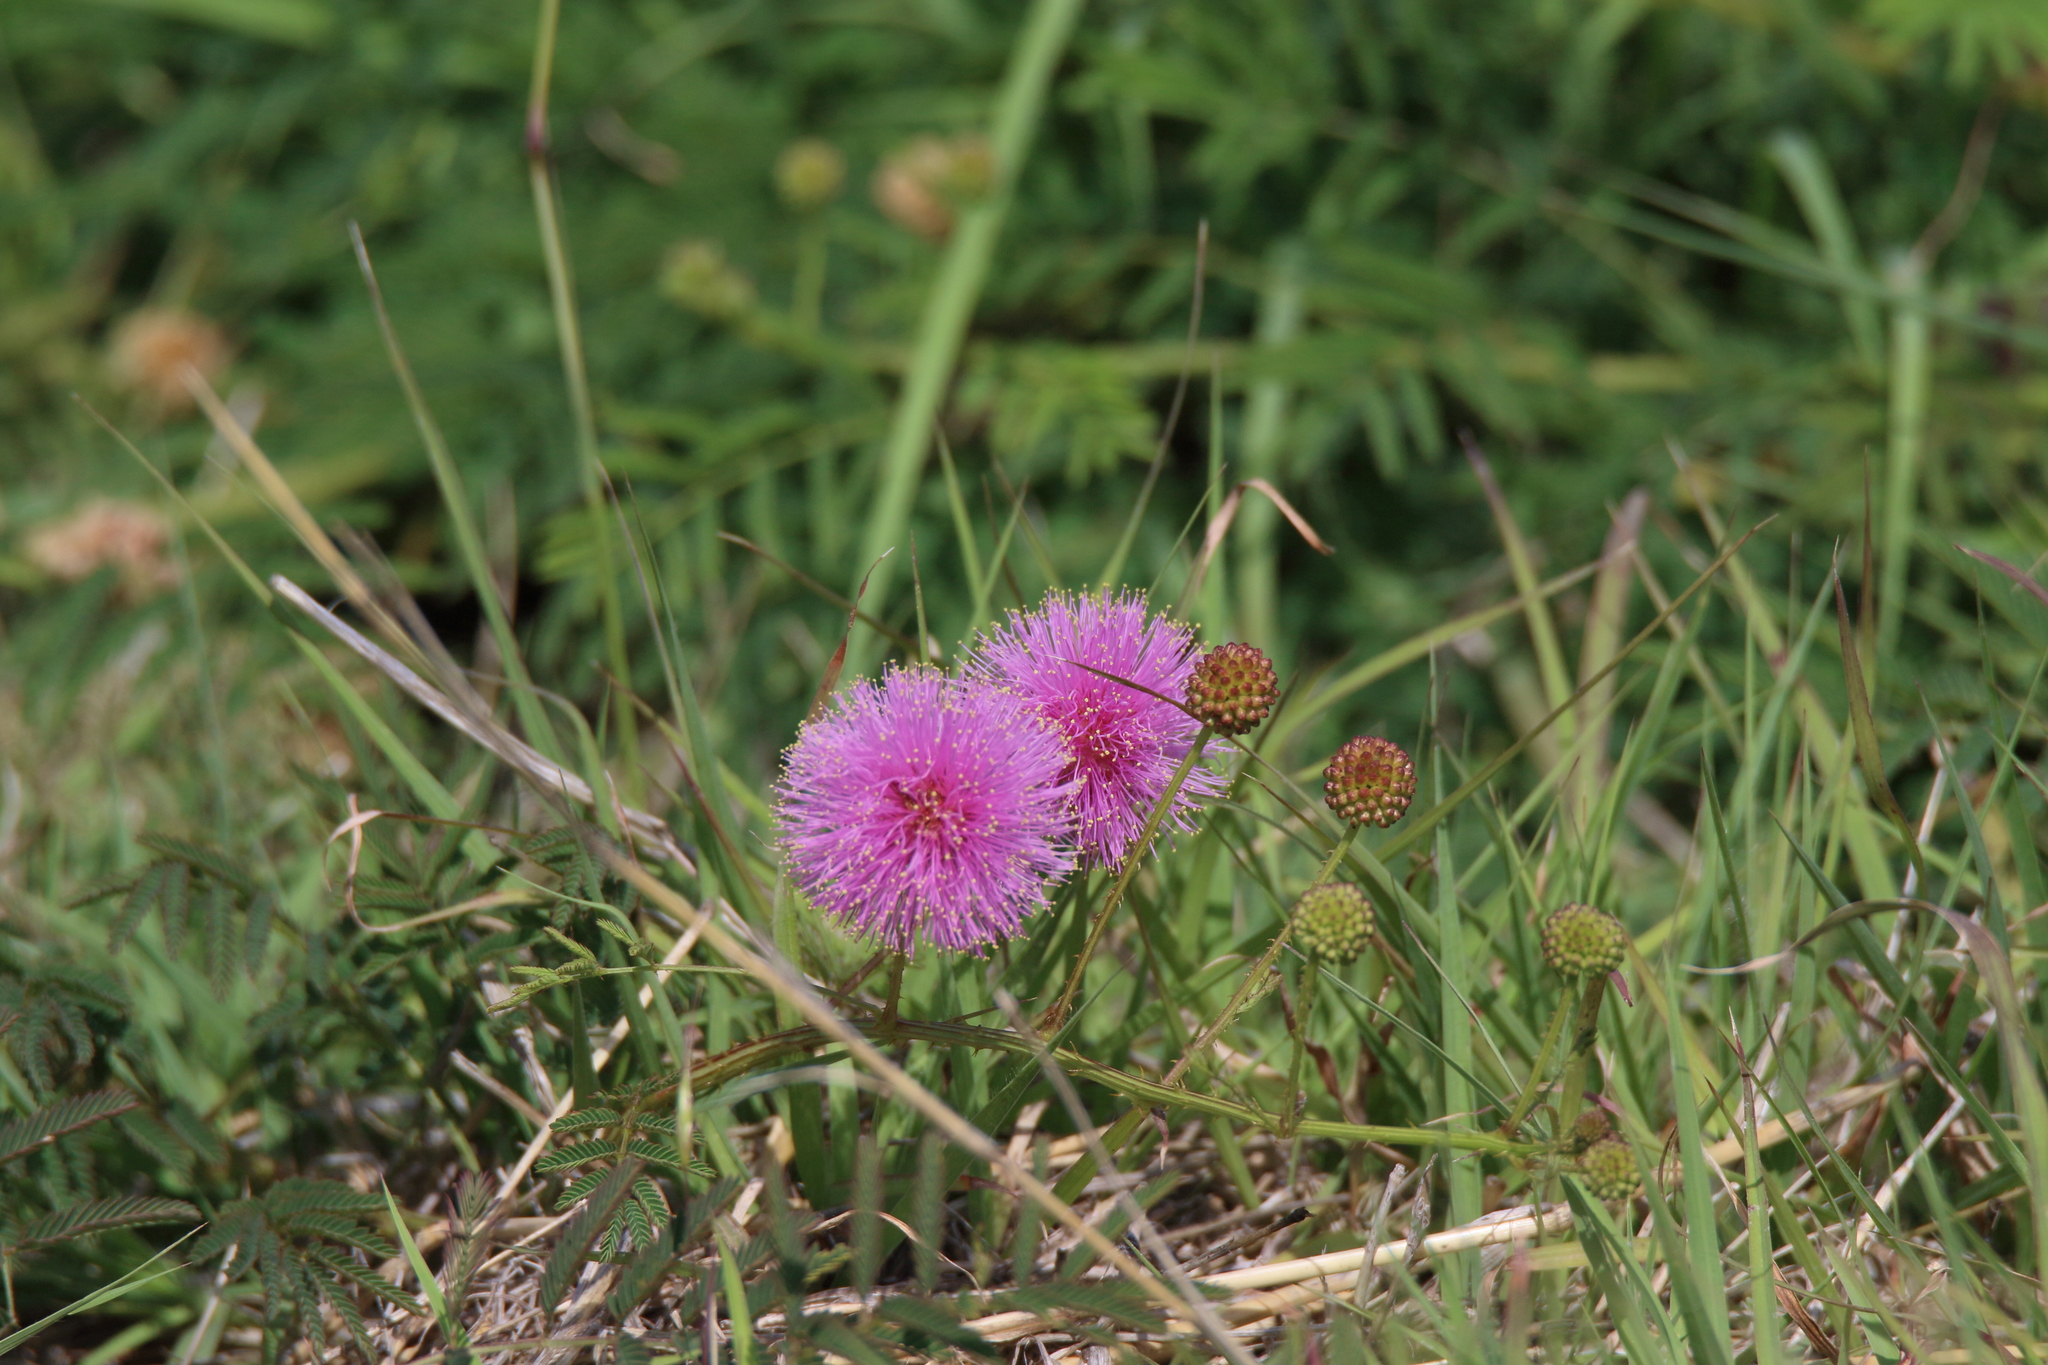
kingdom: Plantae
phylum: Tracheophyta
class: Magnoliopsida
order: Fabales
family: Fabaceae
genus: Mimosa
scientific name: Mimosa quadrivalvis
